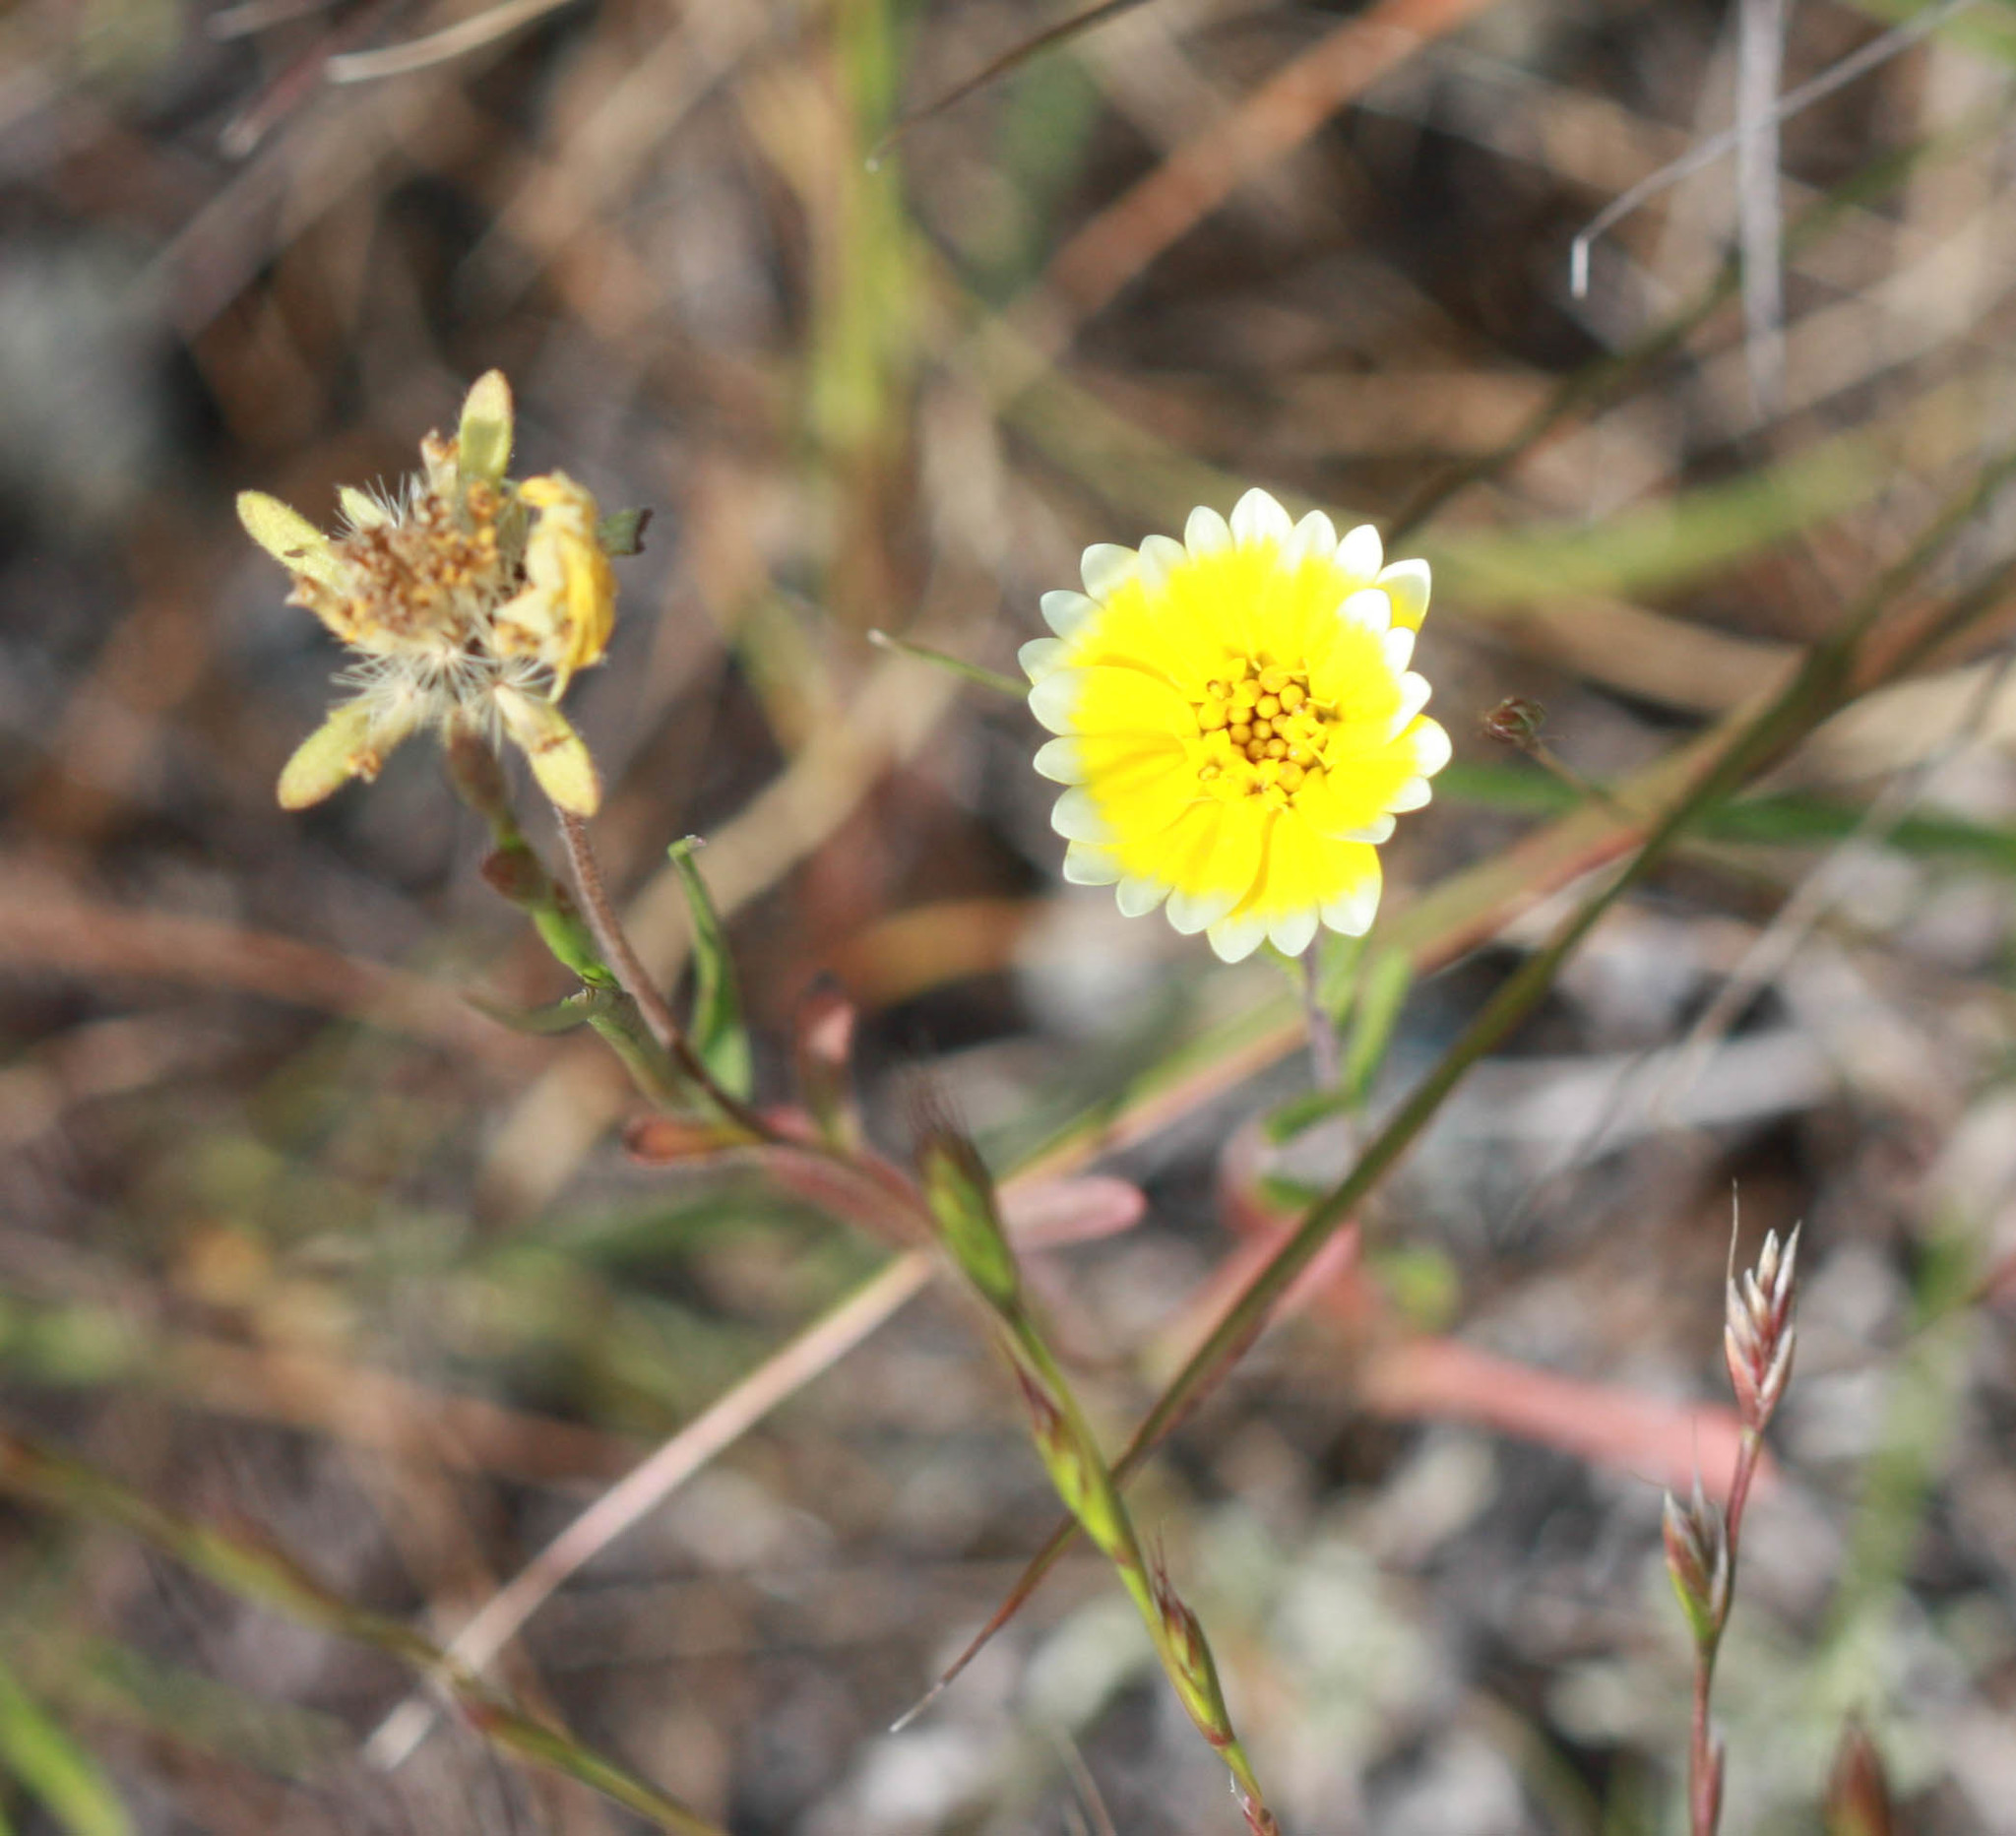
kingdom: Plantae
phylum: Tracheophyta
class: Magnoliopsida
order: Asterales
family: Asteraceae
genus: Layia
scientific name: Layia platyglossa
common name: Tidy-tips
